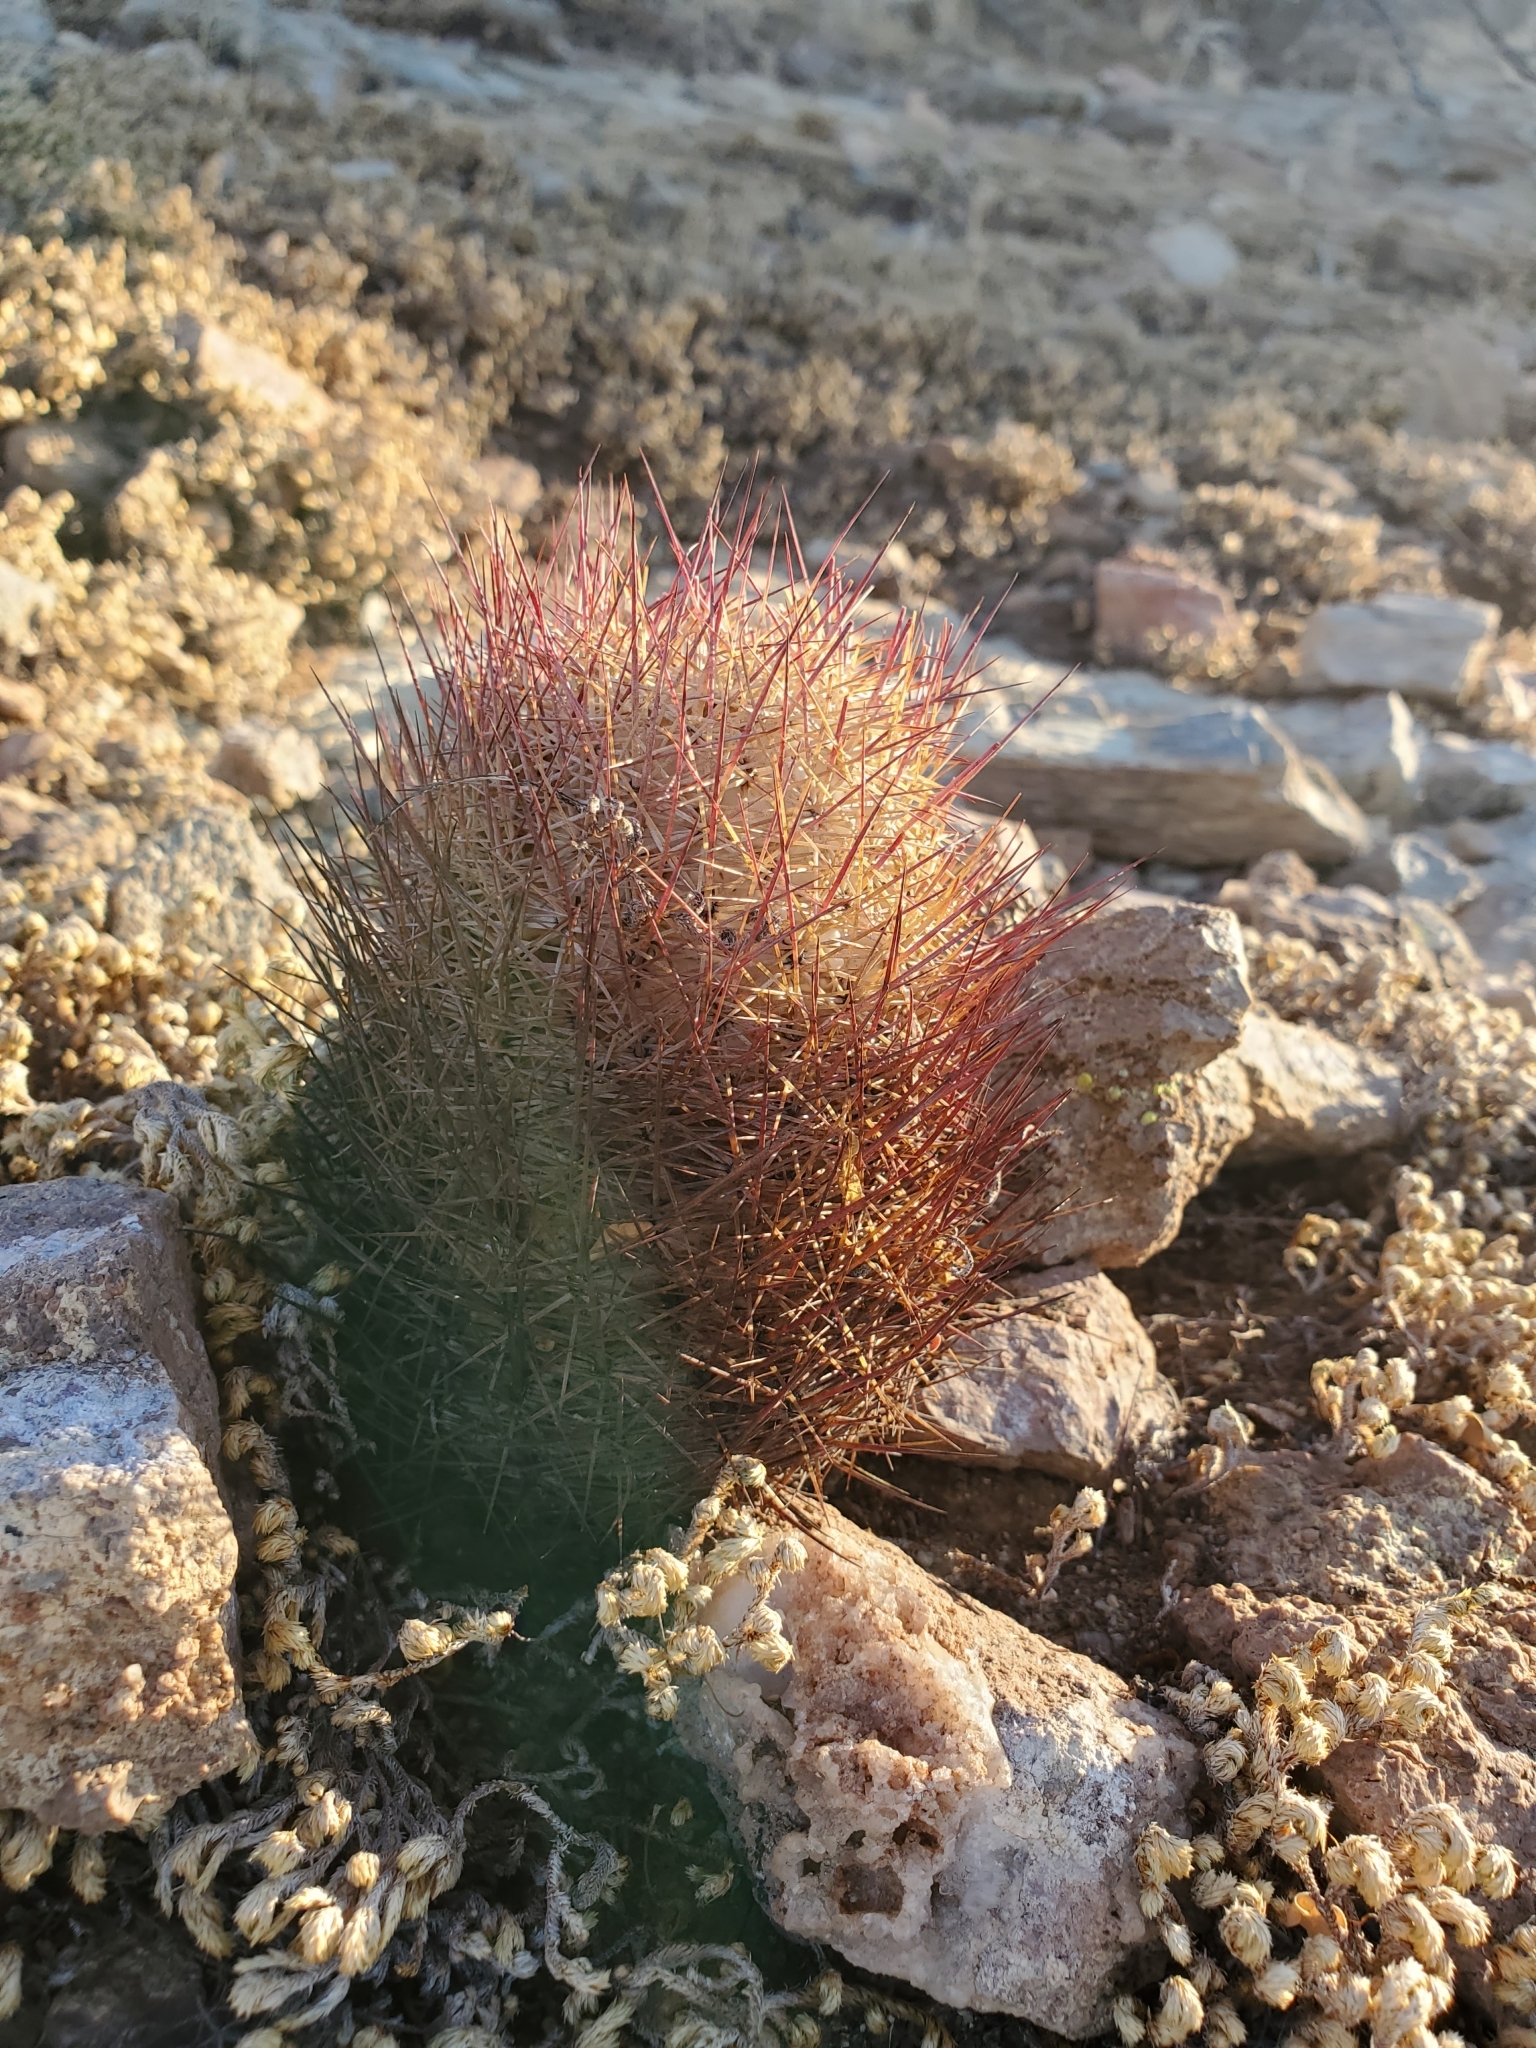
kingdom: Plantae
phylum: Tracheophyta
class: Magnoliopsida
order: Caryophyllales
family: Cactaceae
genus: Sclerocactus
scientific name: Sclerocactus johnsonii
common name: Eight-spine fishhook cactus
